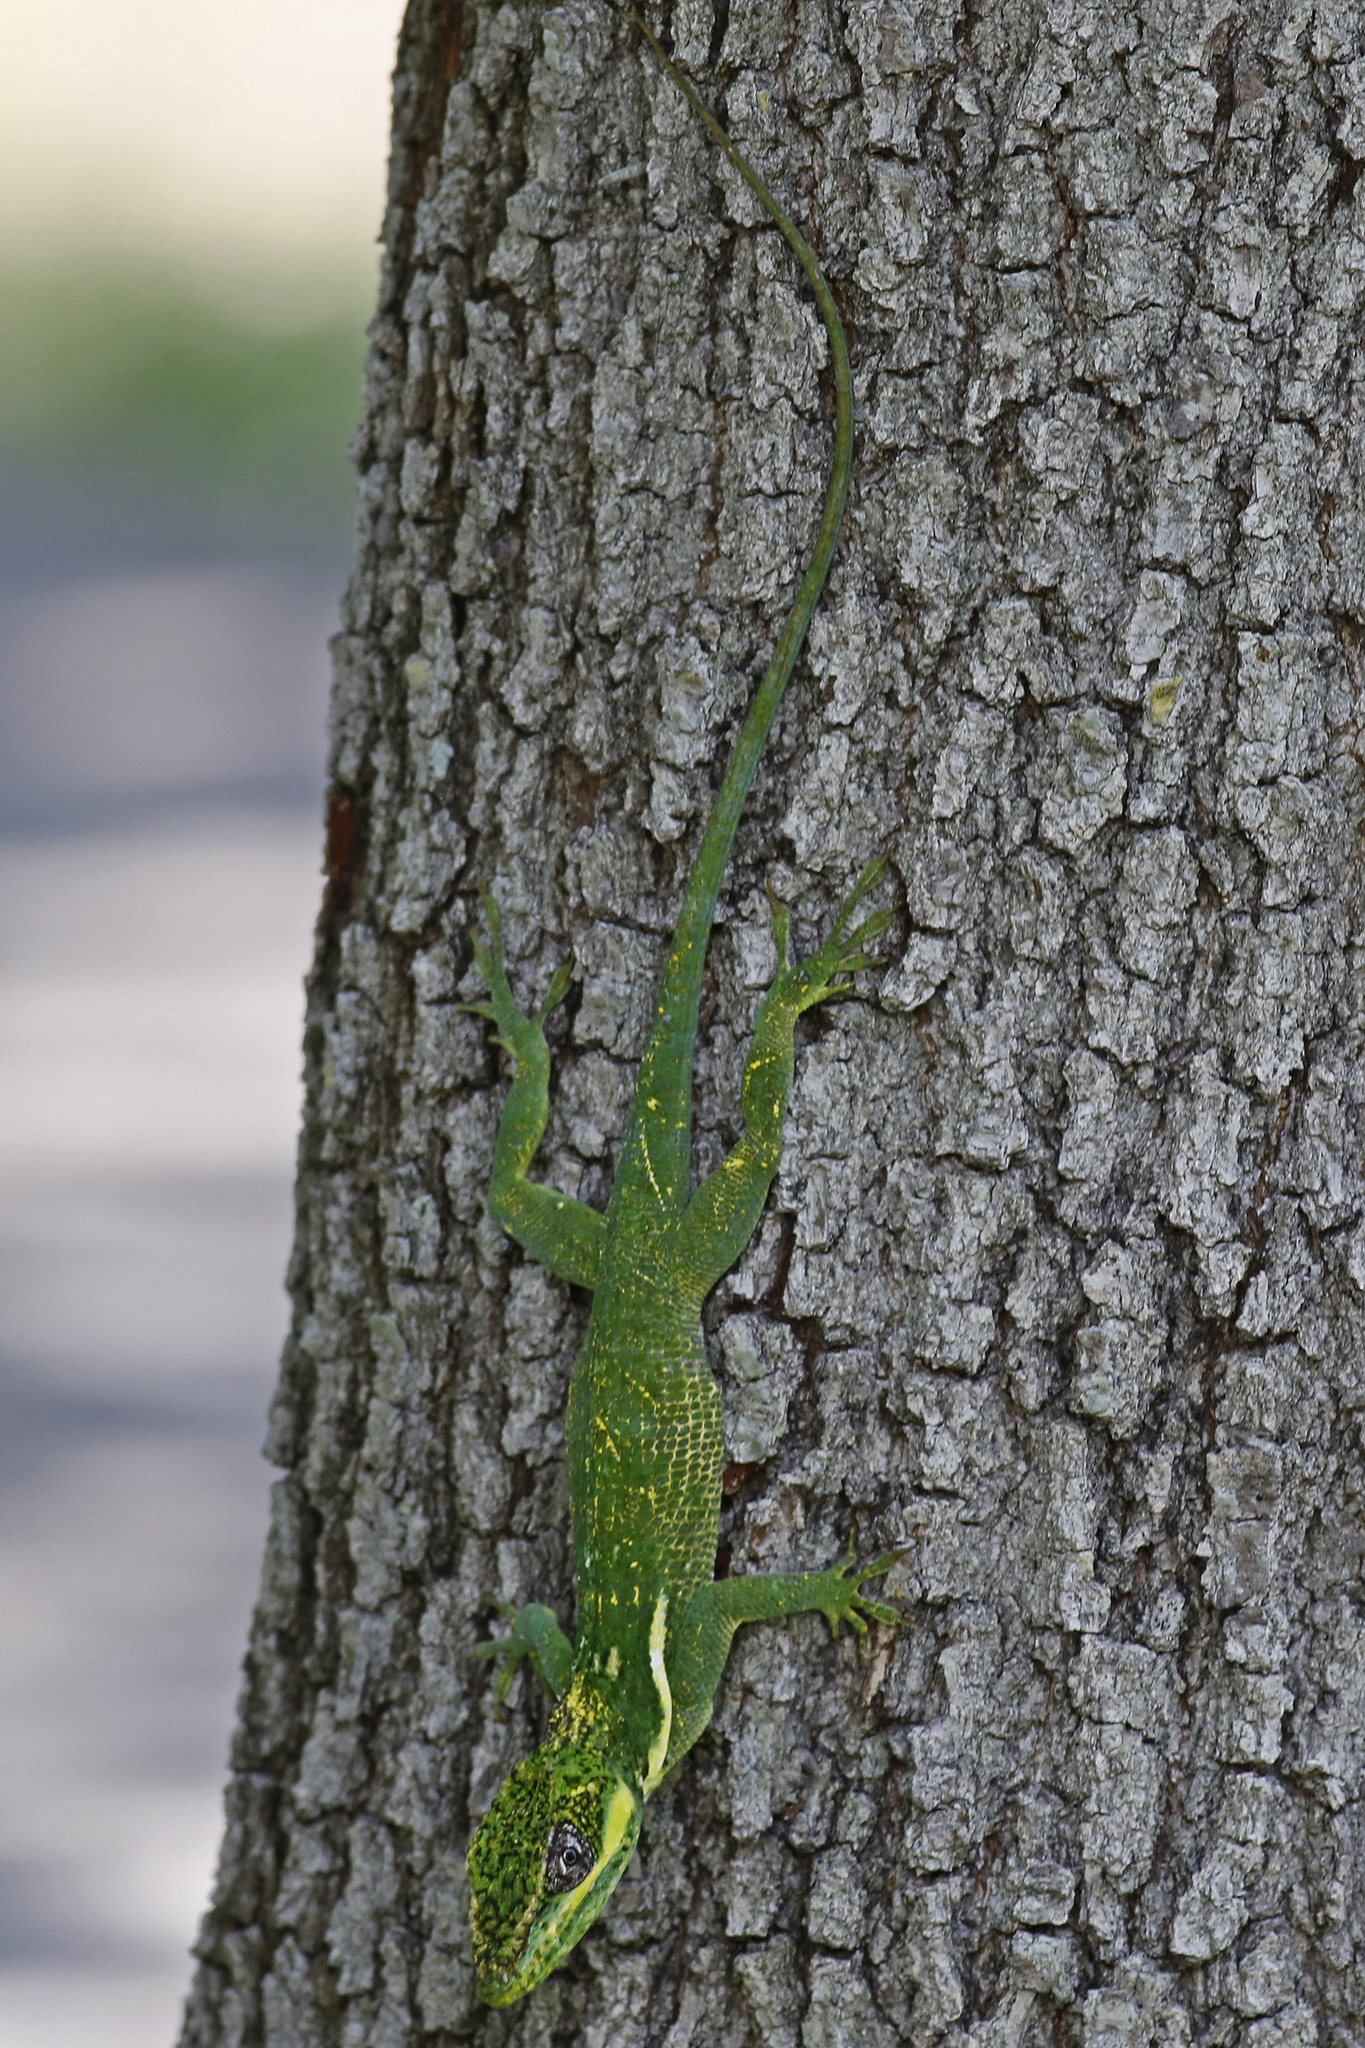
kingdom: Animalia
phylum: Chordata
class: Squamata
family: Dactyloidae
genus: Anolis
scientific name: Anolis equestris
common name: Knight anole
